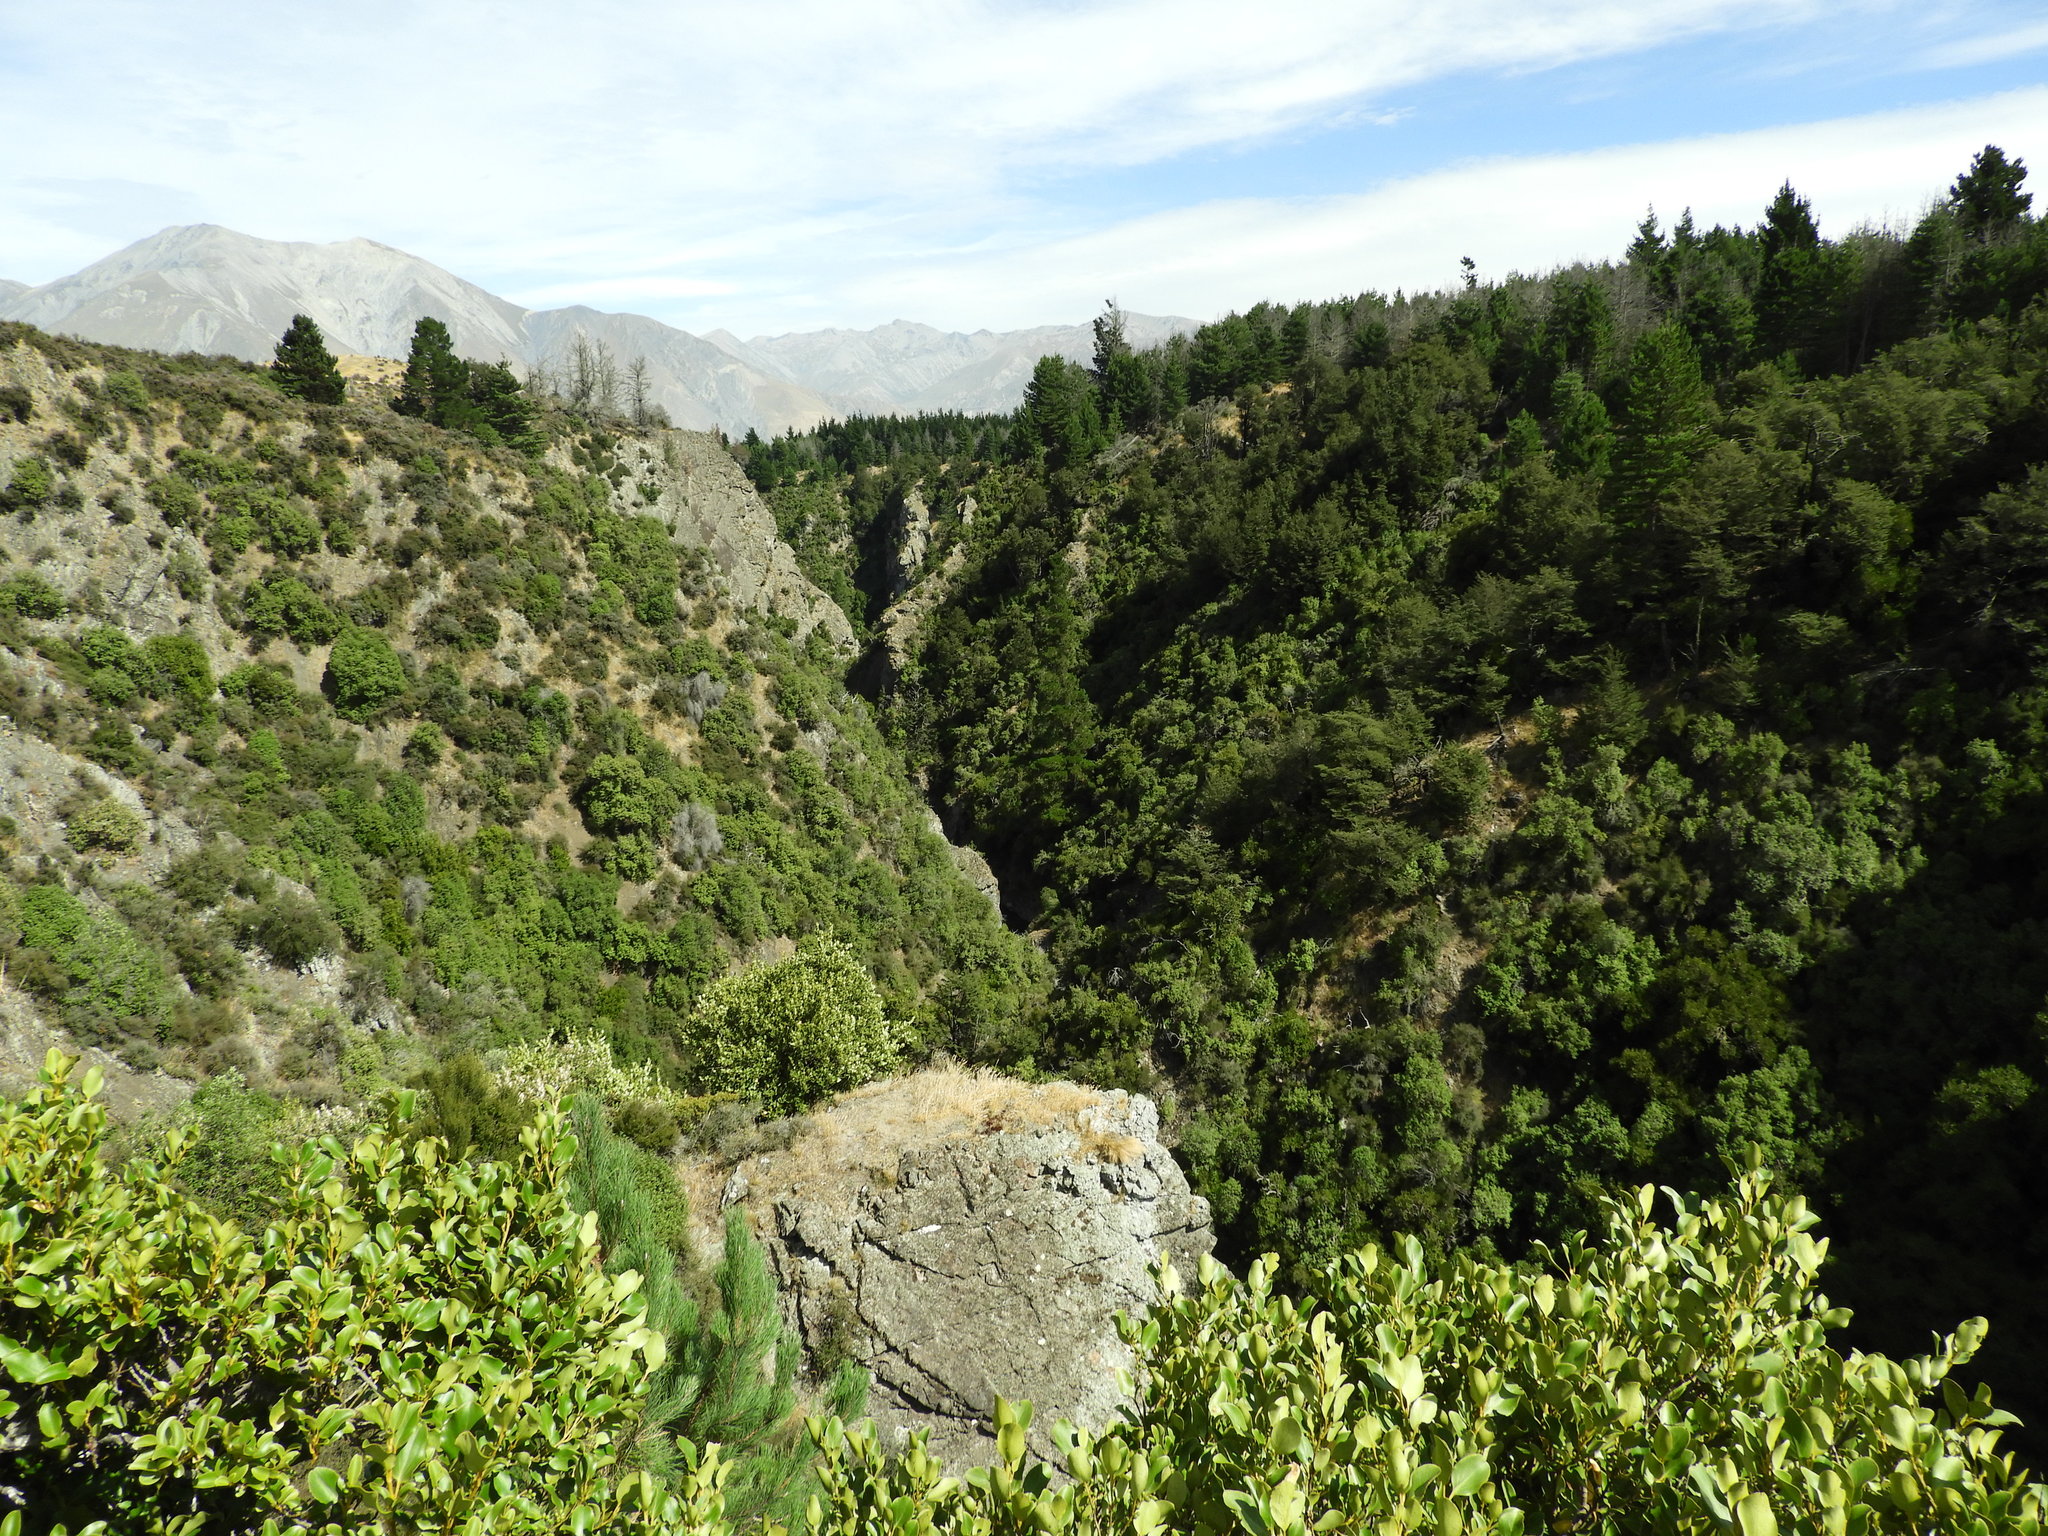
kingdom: Plantae
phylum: Tracheophyta
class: Magnoliopsida
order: Apiales
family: Griseliniaceae
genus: Griselinia
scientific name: Griselinia littoralis
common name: New zealand broadleaf
